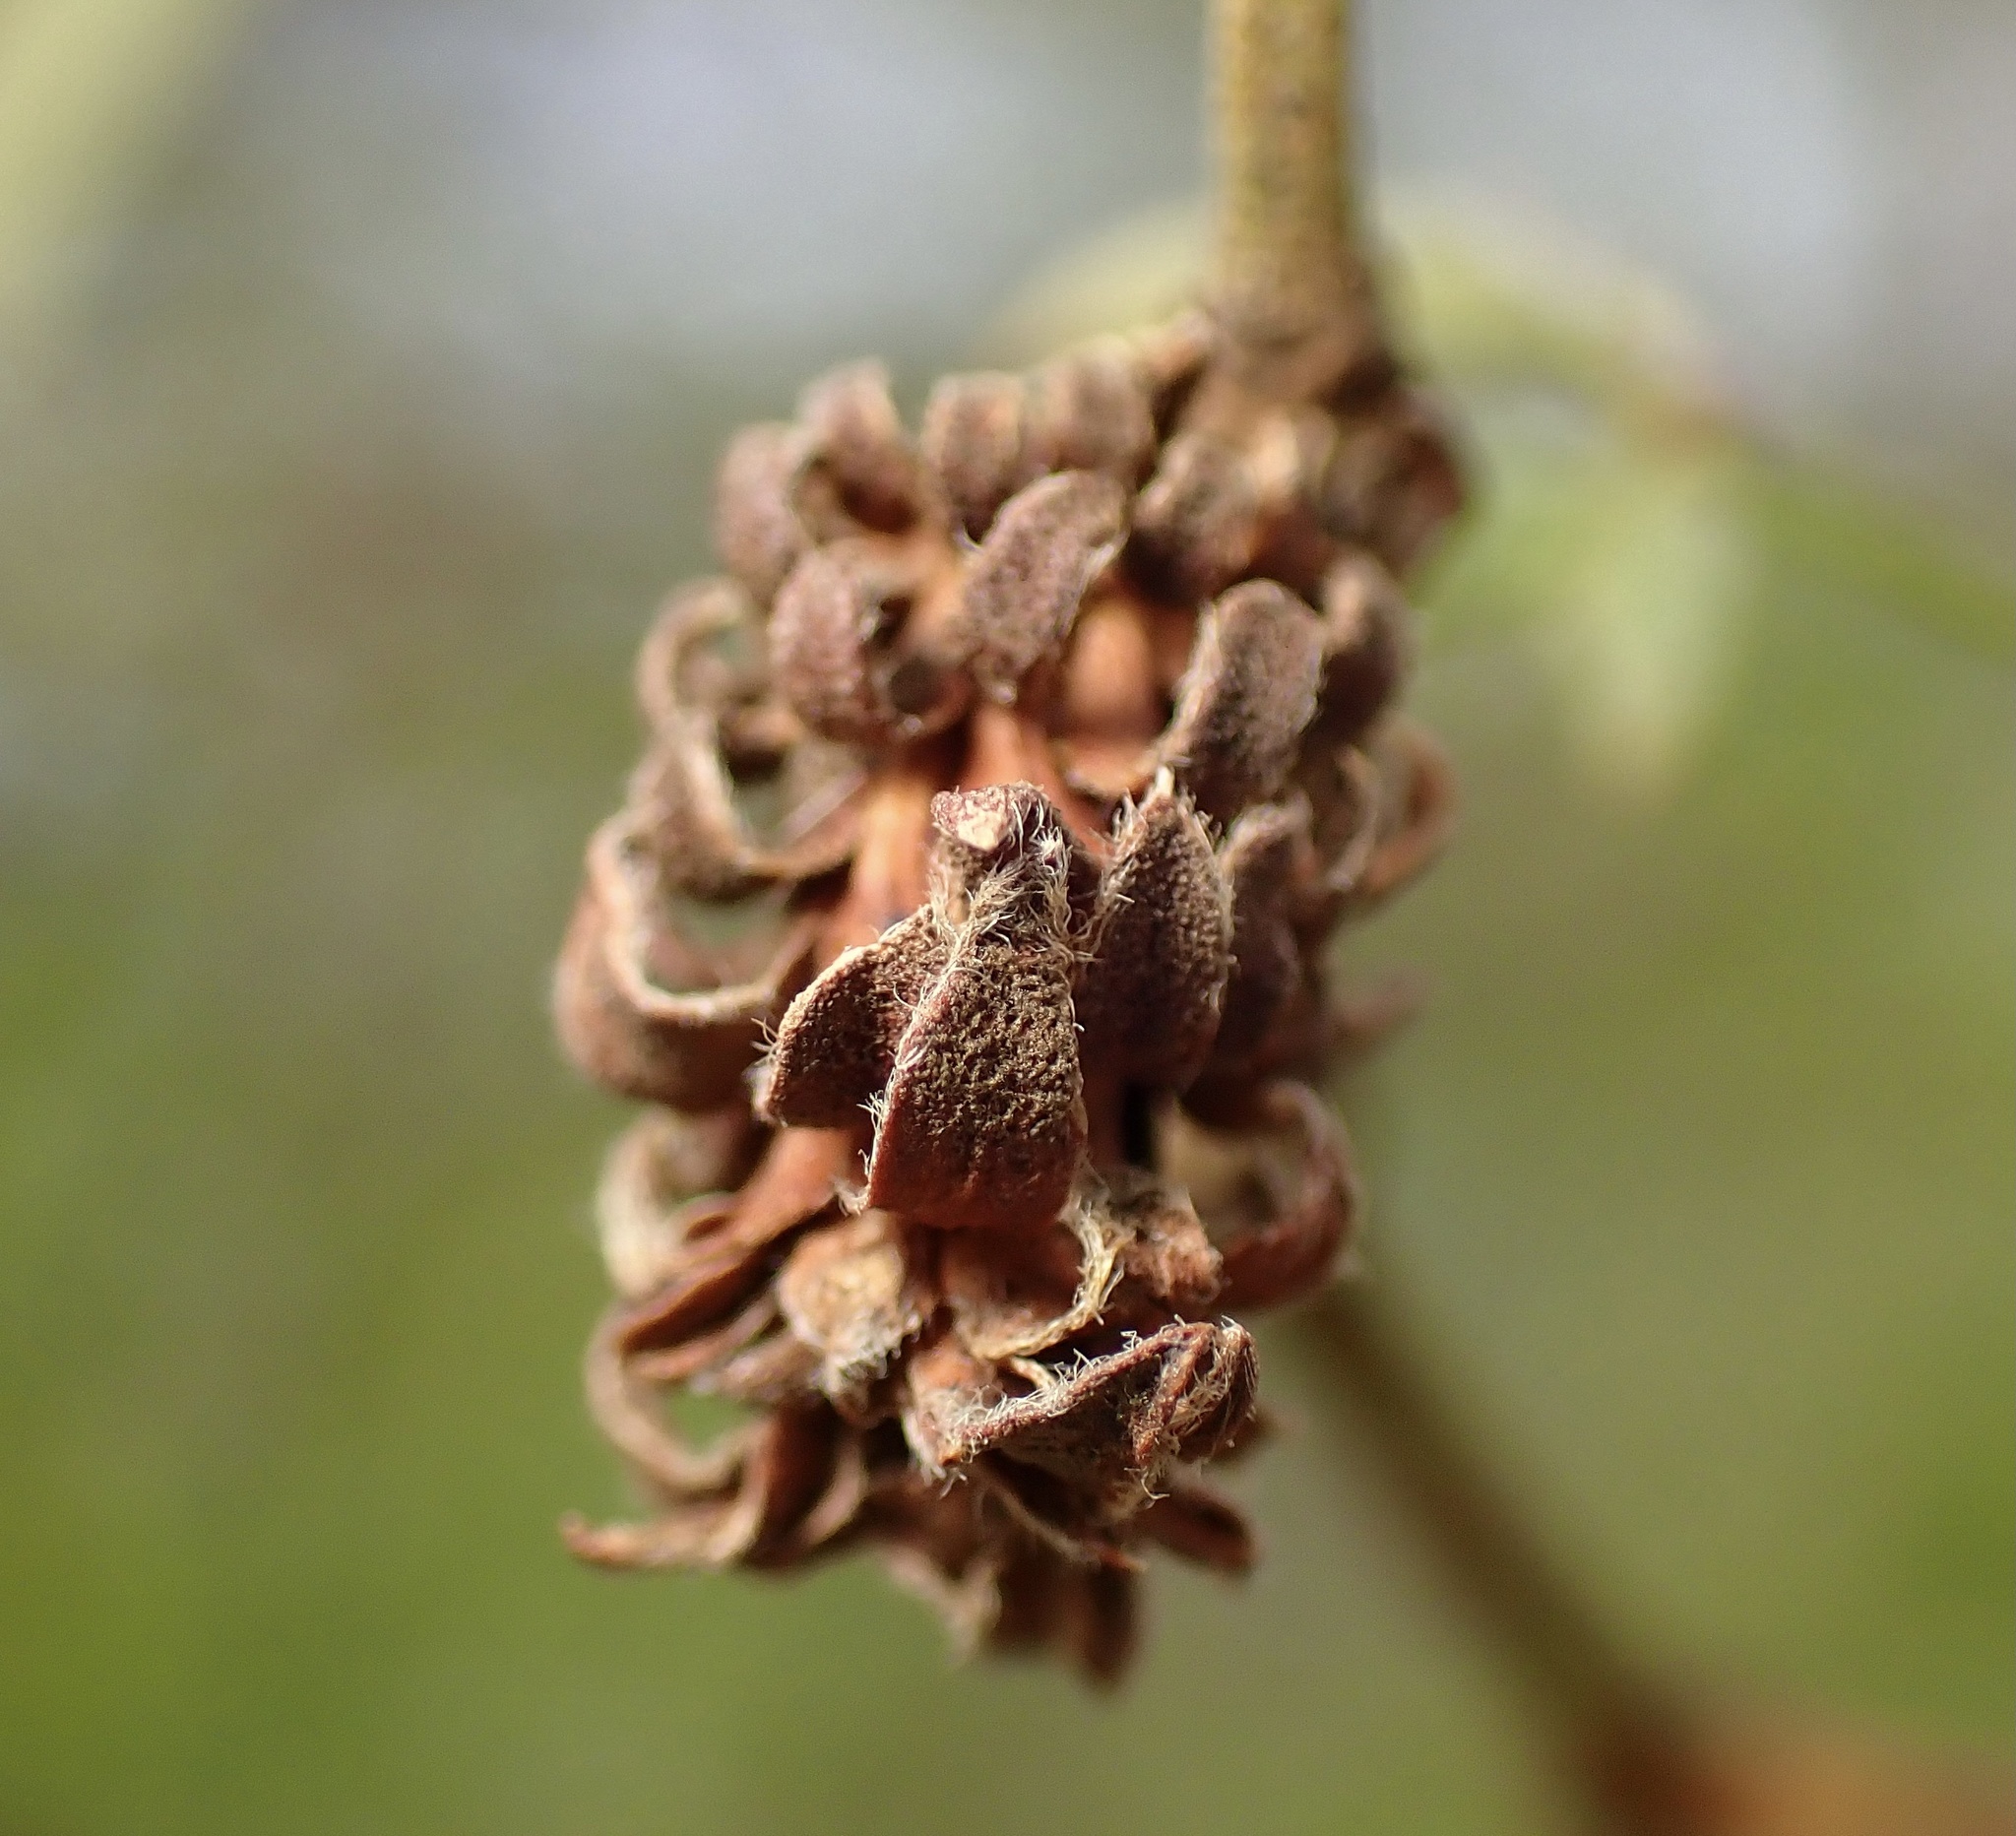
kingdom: Animalia
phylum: Arthropoda
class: Insecta
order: Diptera
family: Cecidomyiidae
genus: Asphondylia
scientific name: Asphondylia rosetta
